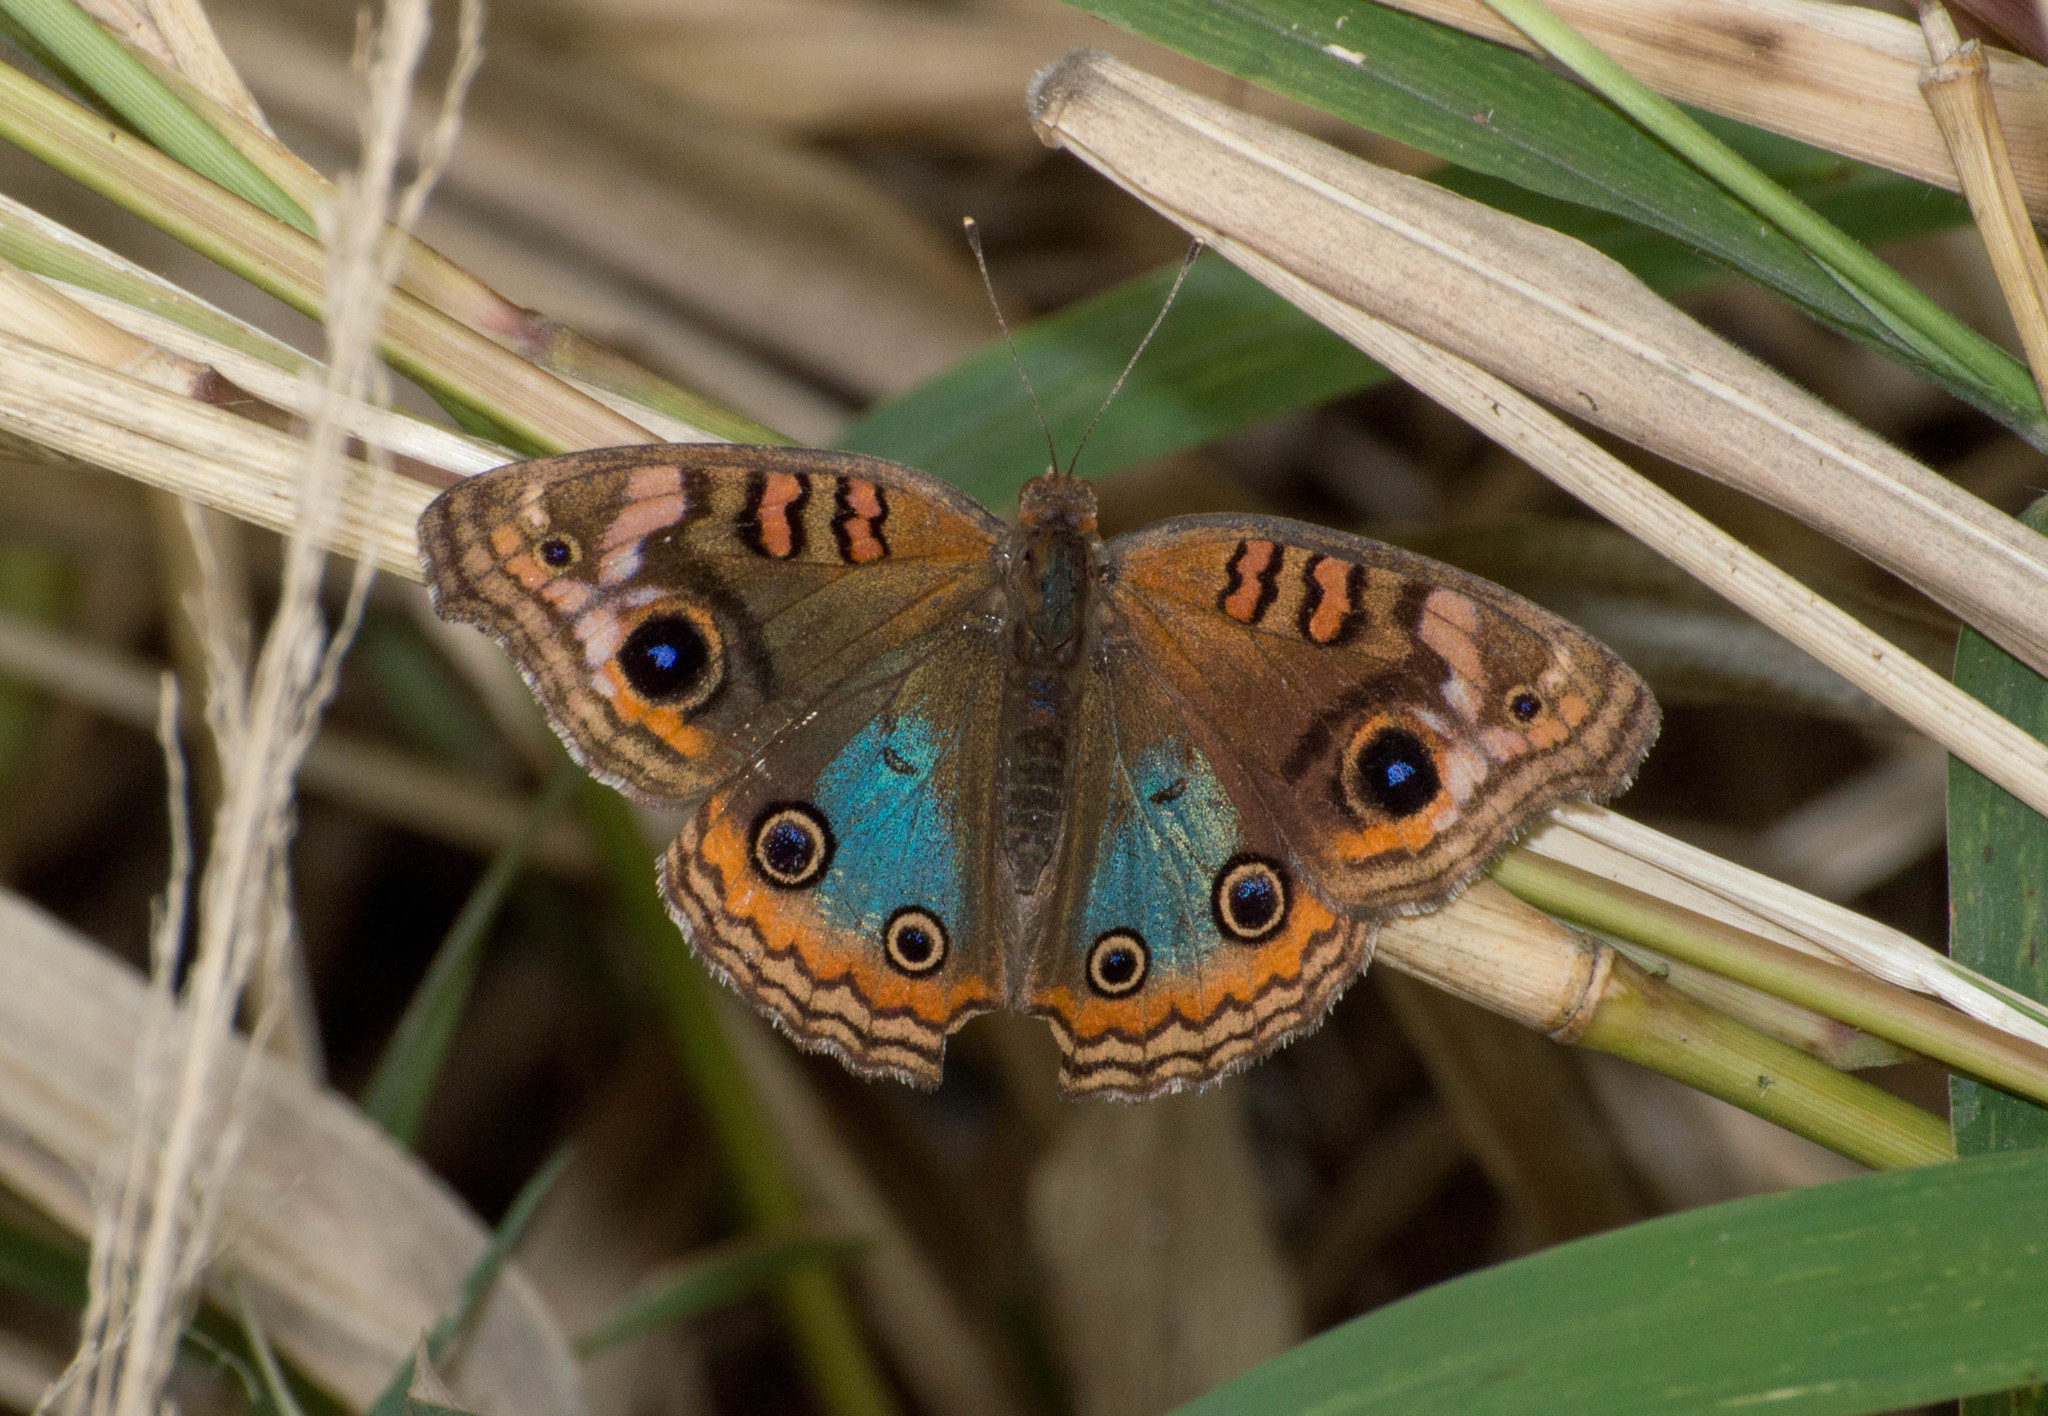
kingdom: Animalia
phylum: Arthropoda
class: Insecta
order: Lepidoptera
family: Nymphalidae
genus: Junonia
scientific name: Junonia lavinia
